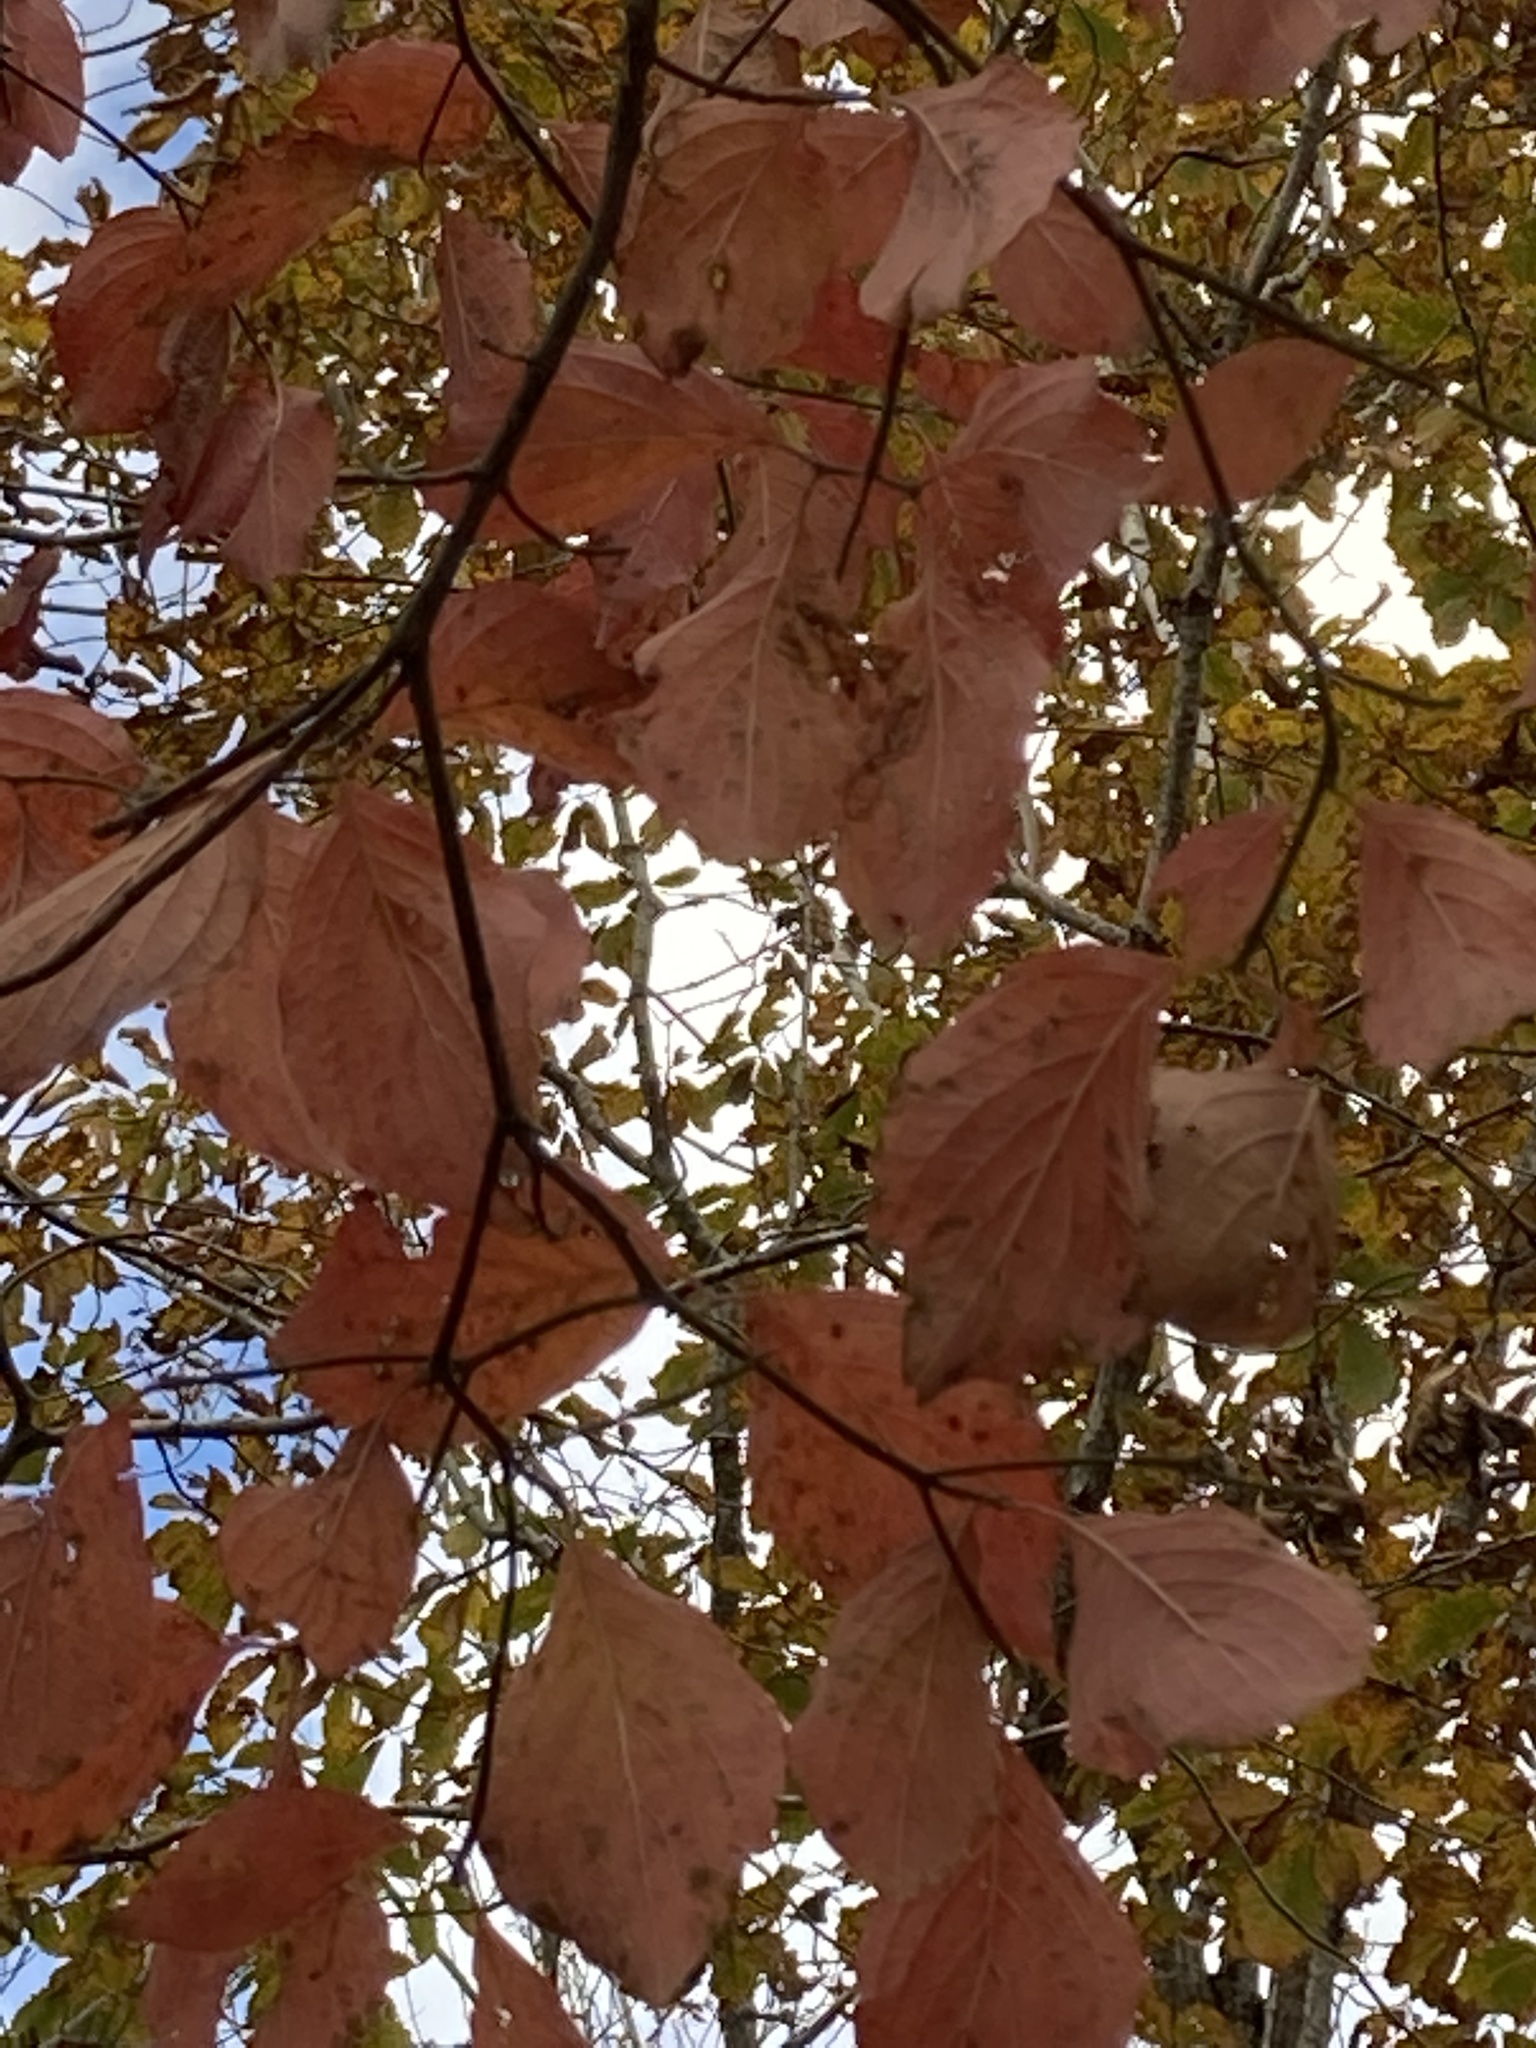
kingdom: Plantae
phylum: Tracheophyta
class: Magnoliopsida
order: Cornales
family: Cornaceae
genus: Cornus
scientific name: Cornus florida
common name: Flowering dogwood
